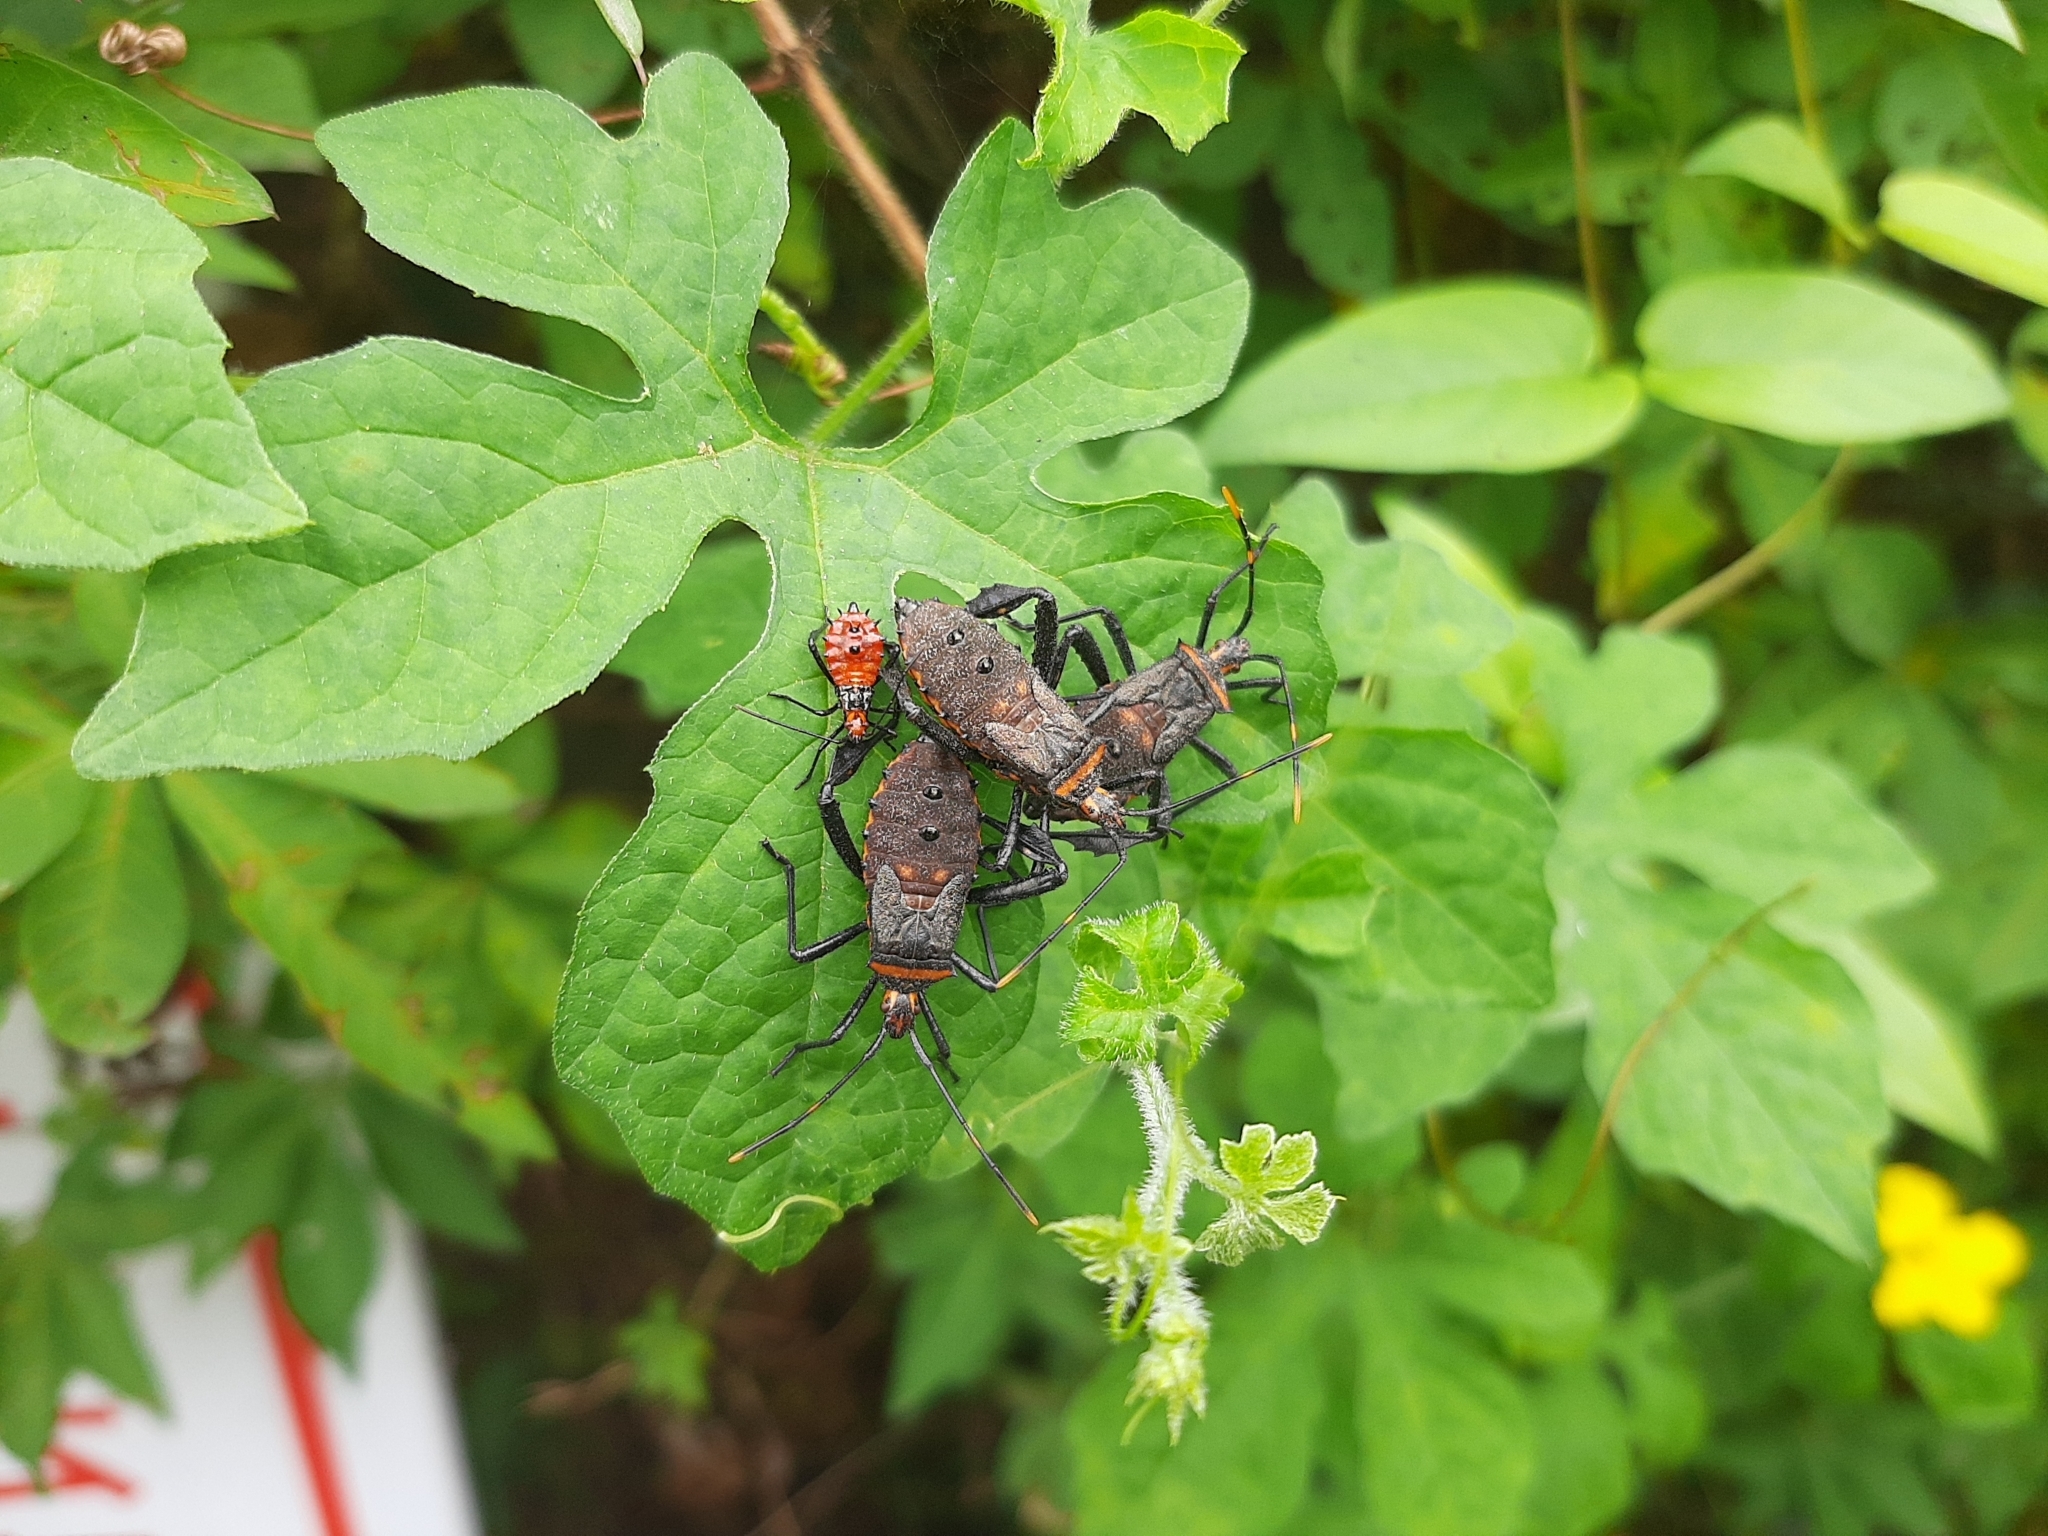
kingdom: Animalia
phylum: Arthropoda
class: Insecta
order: Hemiptera
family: Coreidae
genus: Leptoglossus
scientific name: Leptoglossus gonagra
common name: Citron bug
